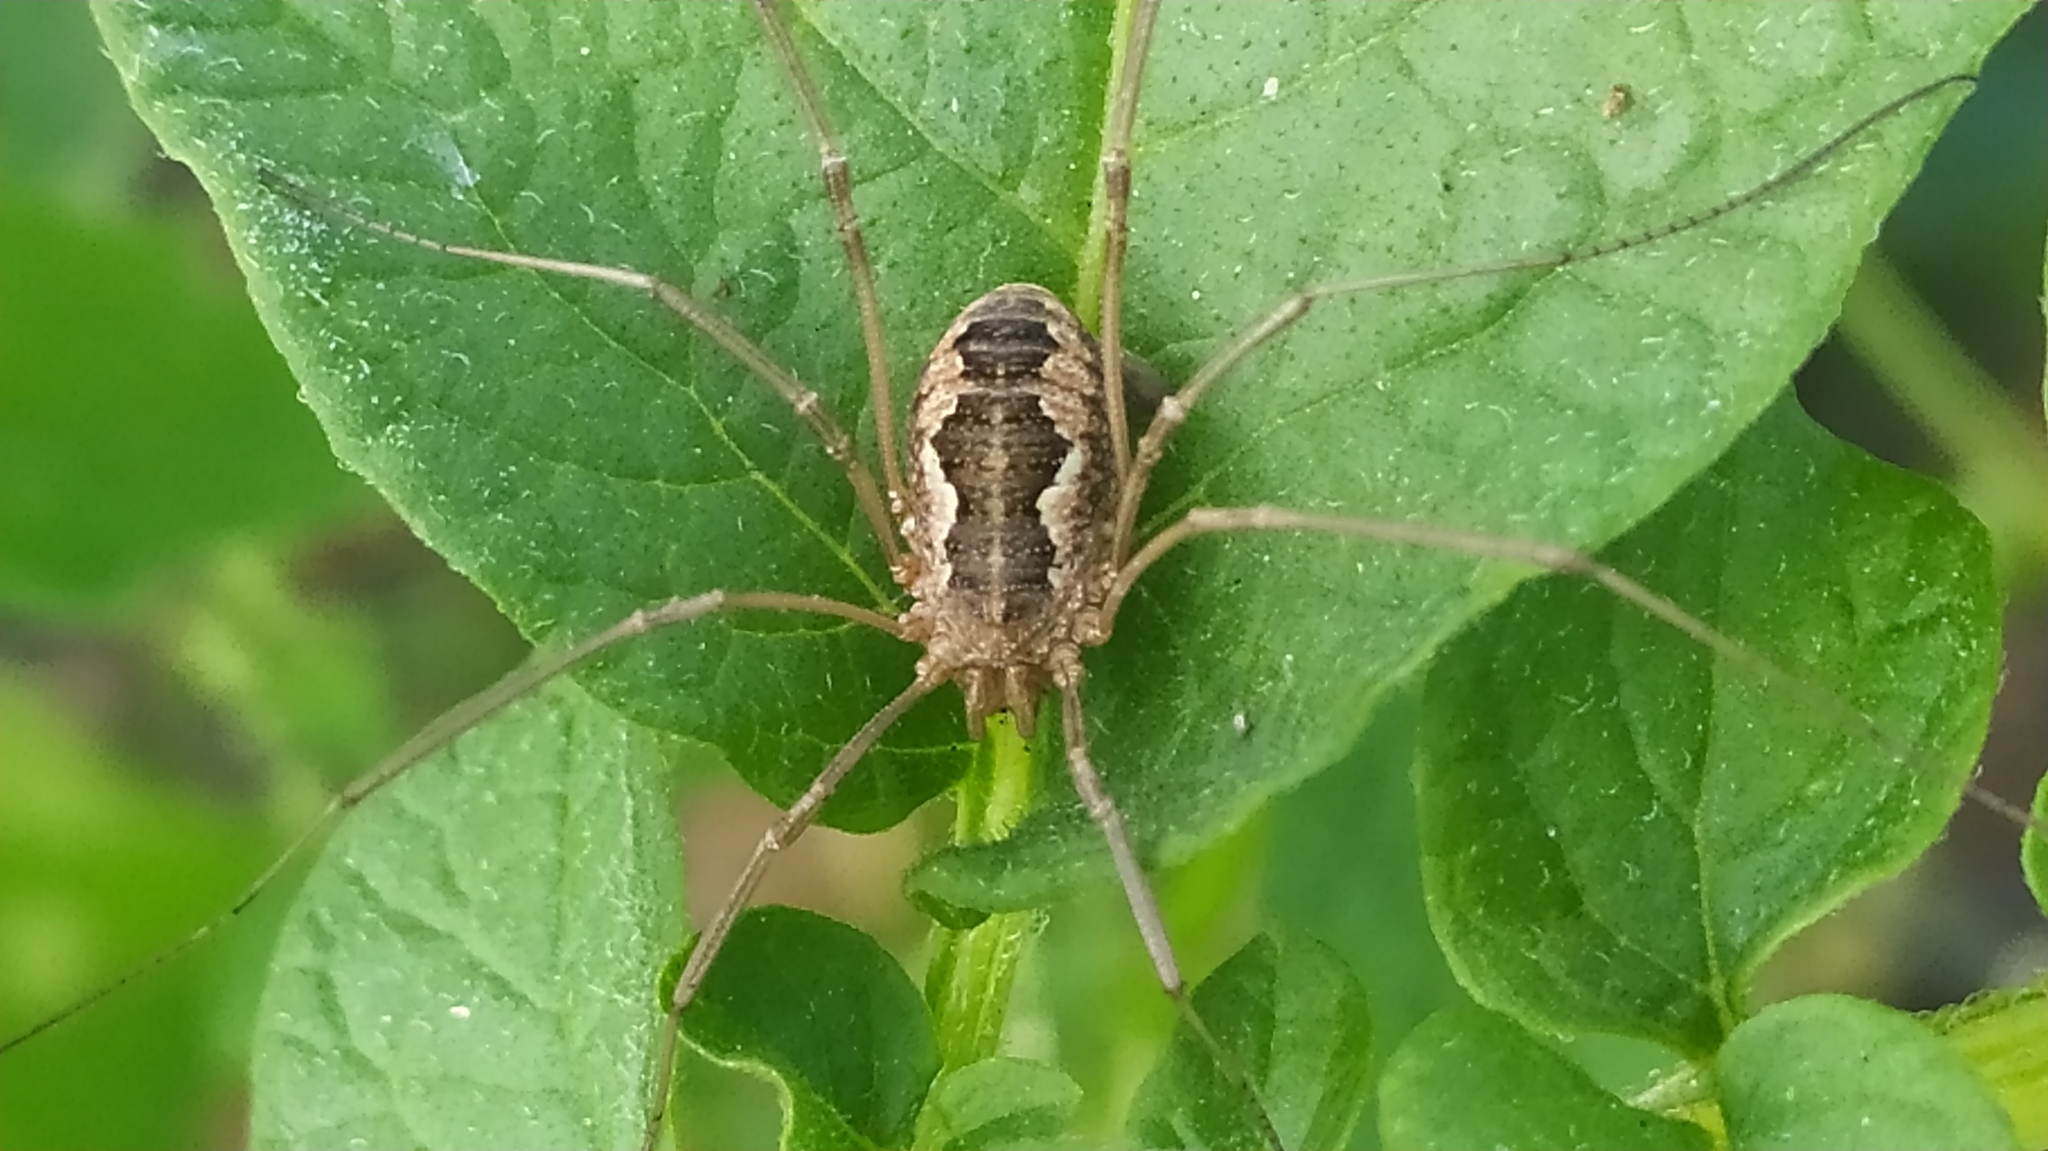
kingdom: Animalia
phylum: Arthropoda
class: Arachnida
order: Opiliones
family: Phalangiidae
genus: Phalangium
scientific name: Phalangium opilio
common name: Daddy longleg
